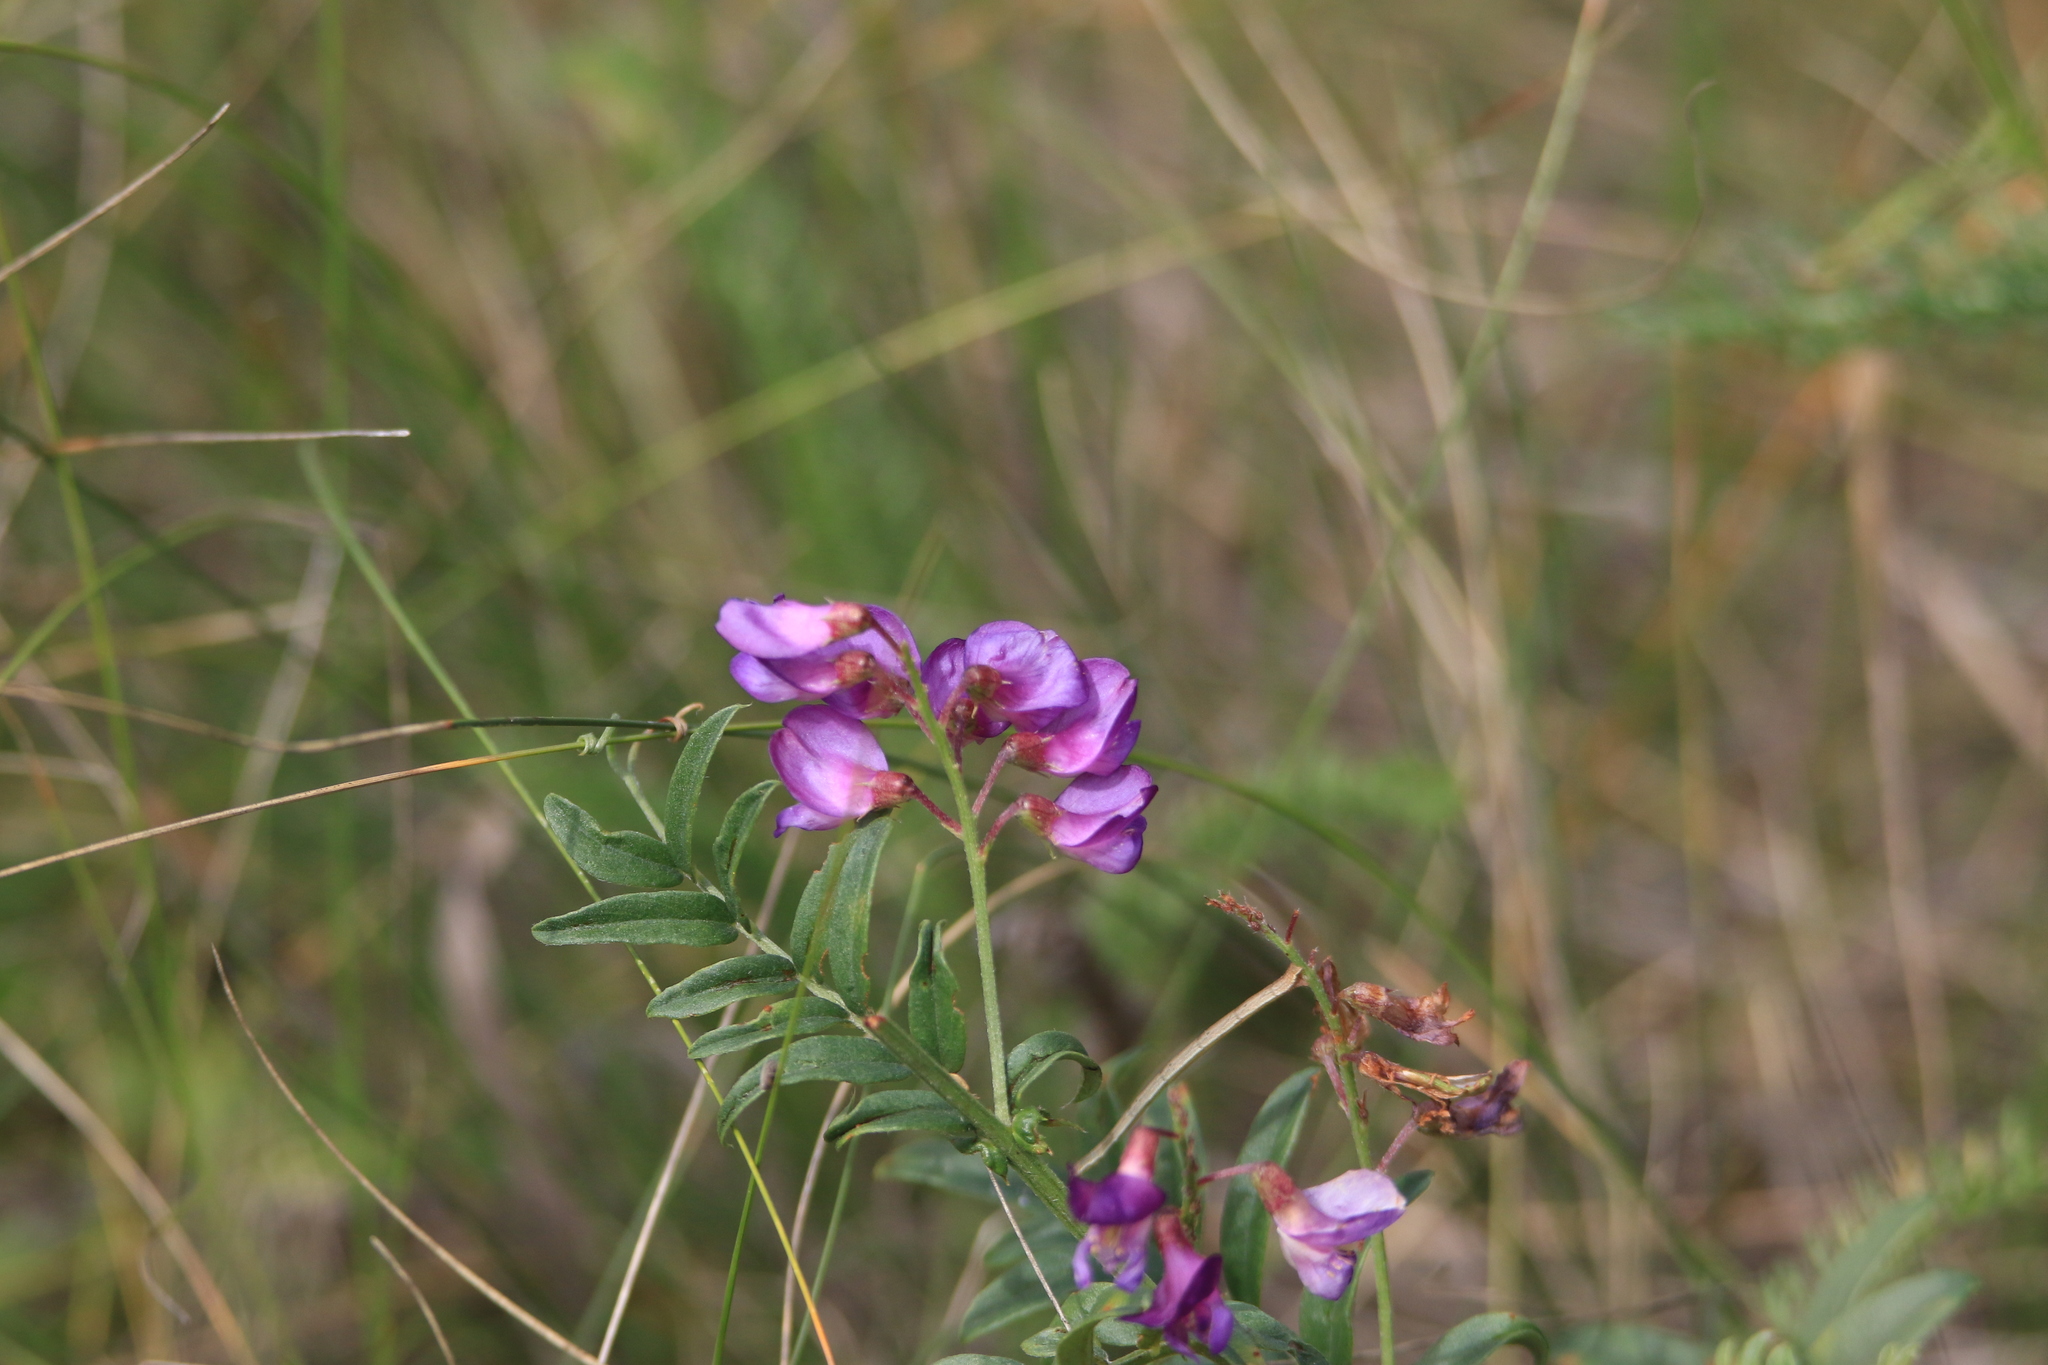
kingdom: Plantae
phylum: Tracheophyta
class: Magnoliopsida
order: Fabales
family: Fabaceae
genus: Vicia
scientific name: Vicia amoena
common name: Cheder ebs
